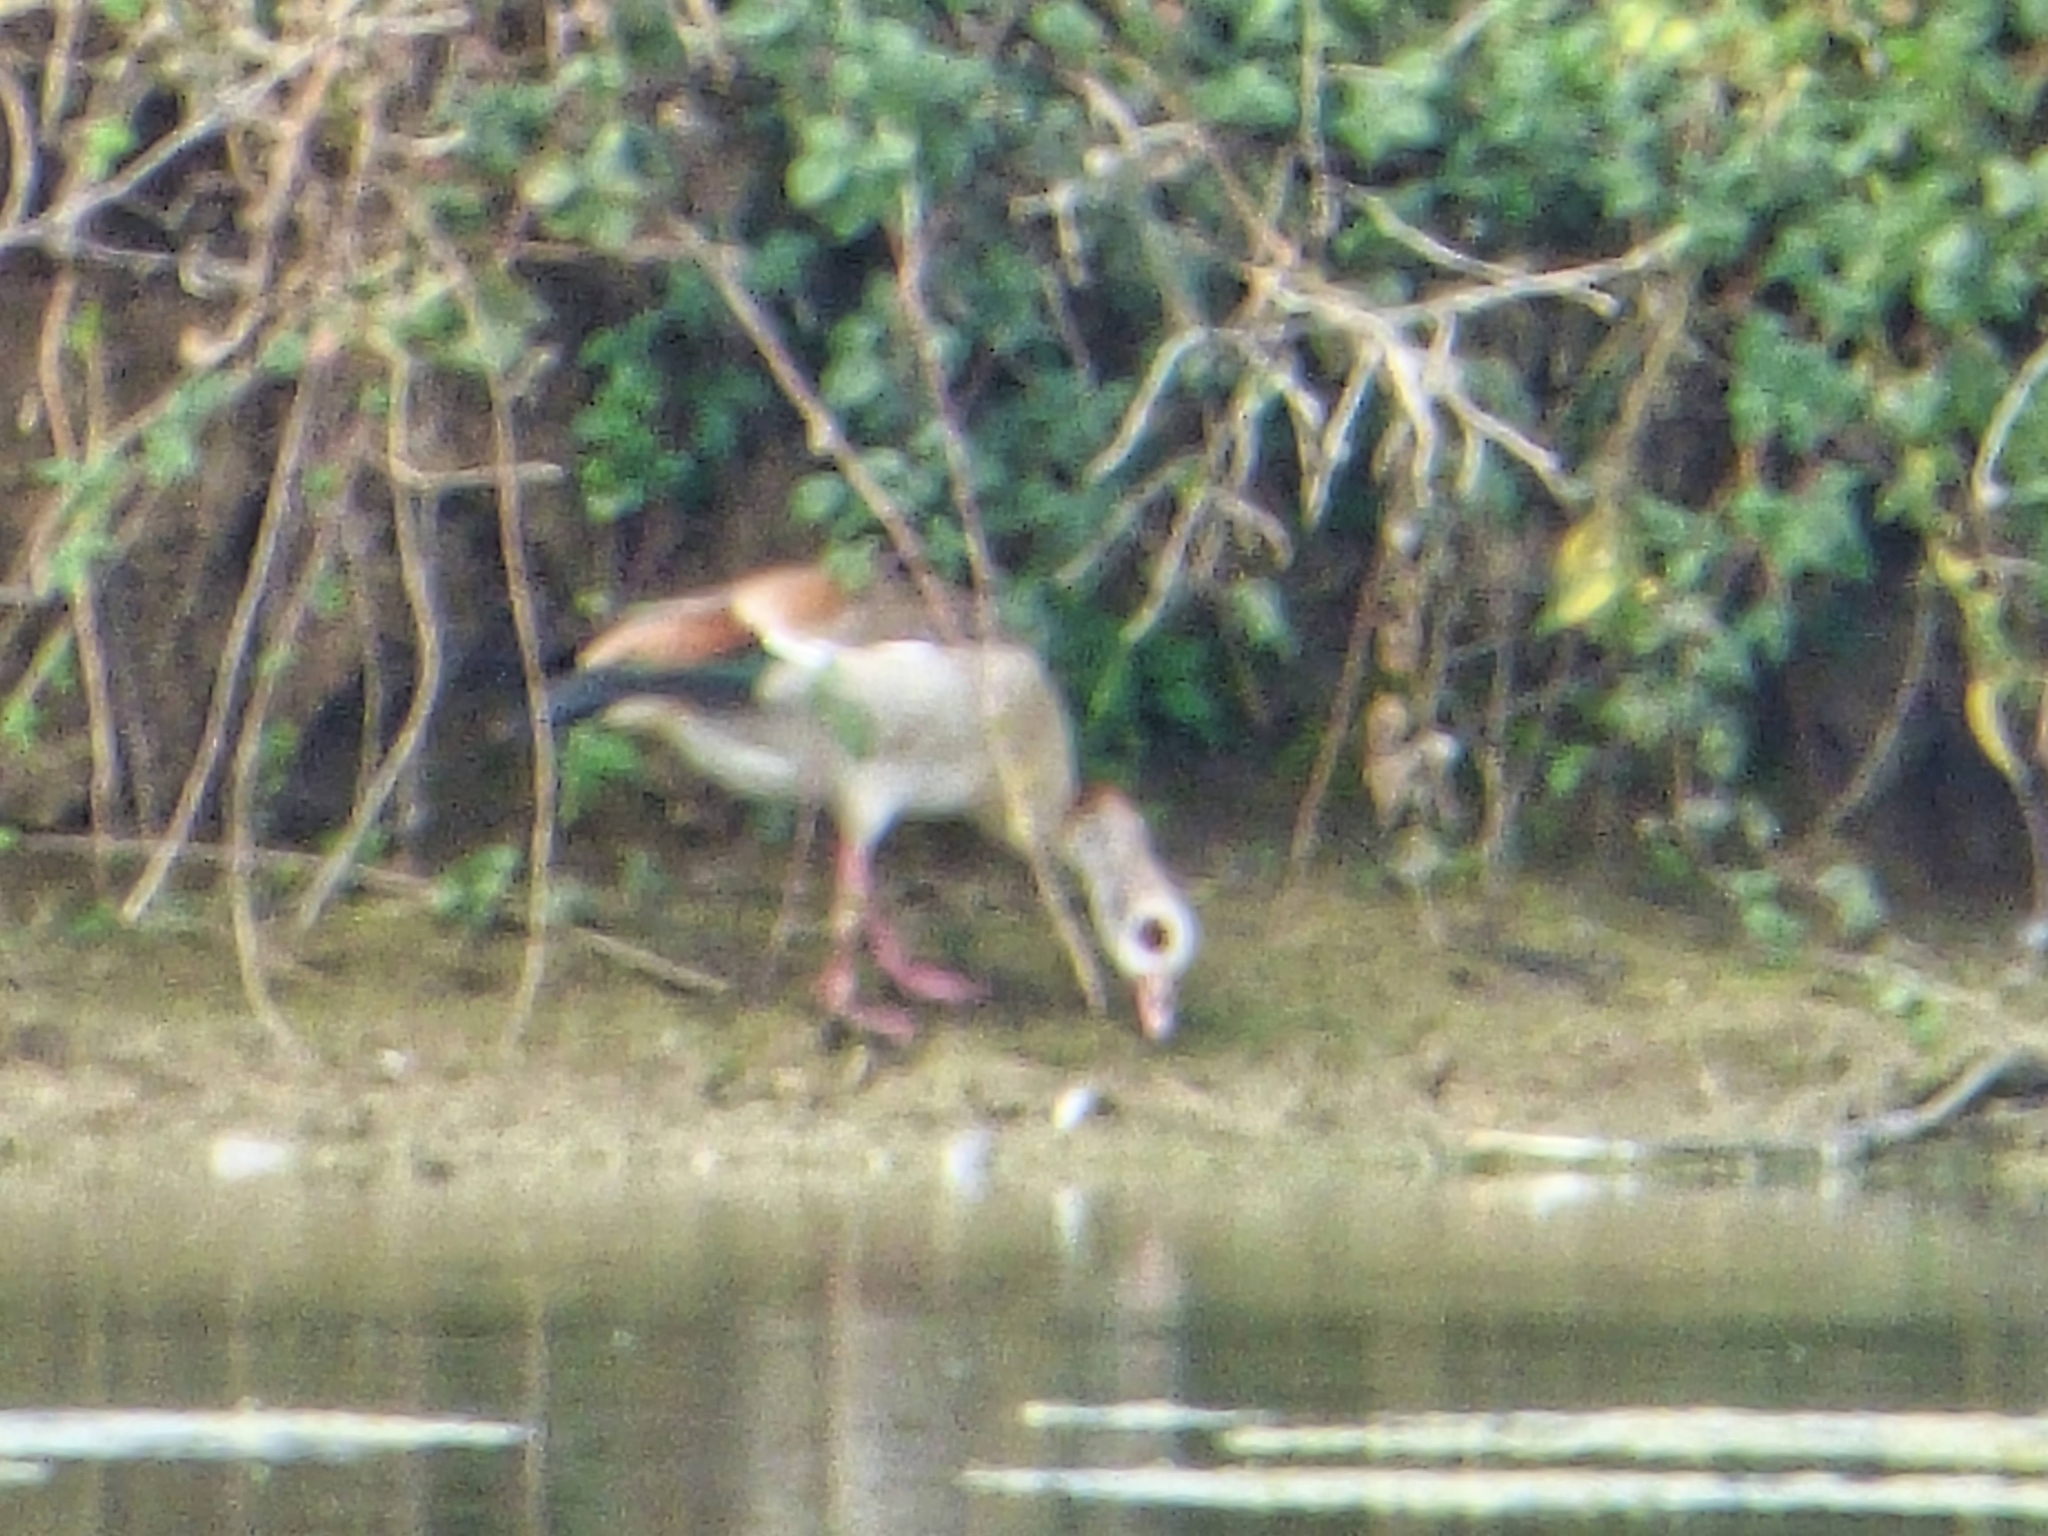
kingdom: Animalia
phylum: Chordata
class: Aves
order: Anseriformes
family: Anatidae
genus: Alopochen
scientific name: Alopochen aegyptiaca
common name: Egyptian goose
